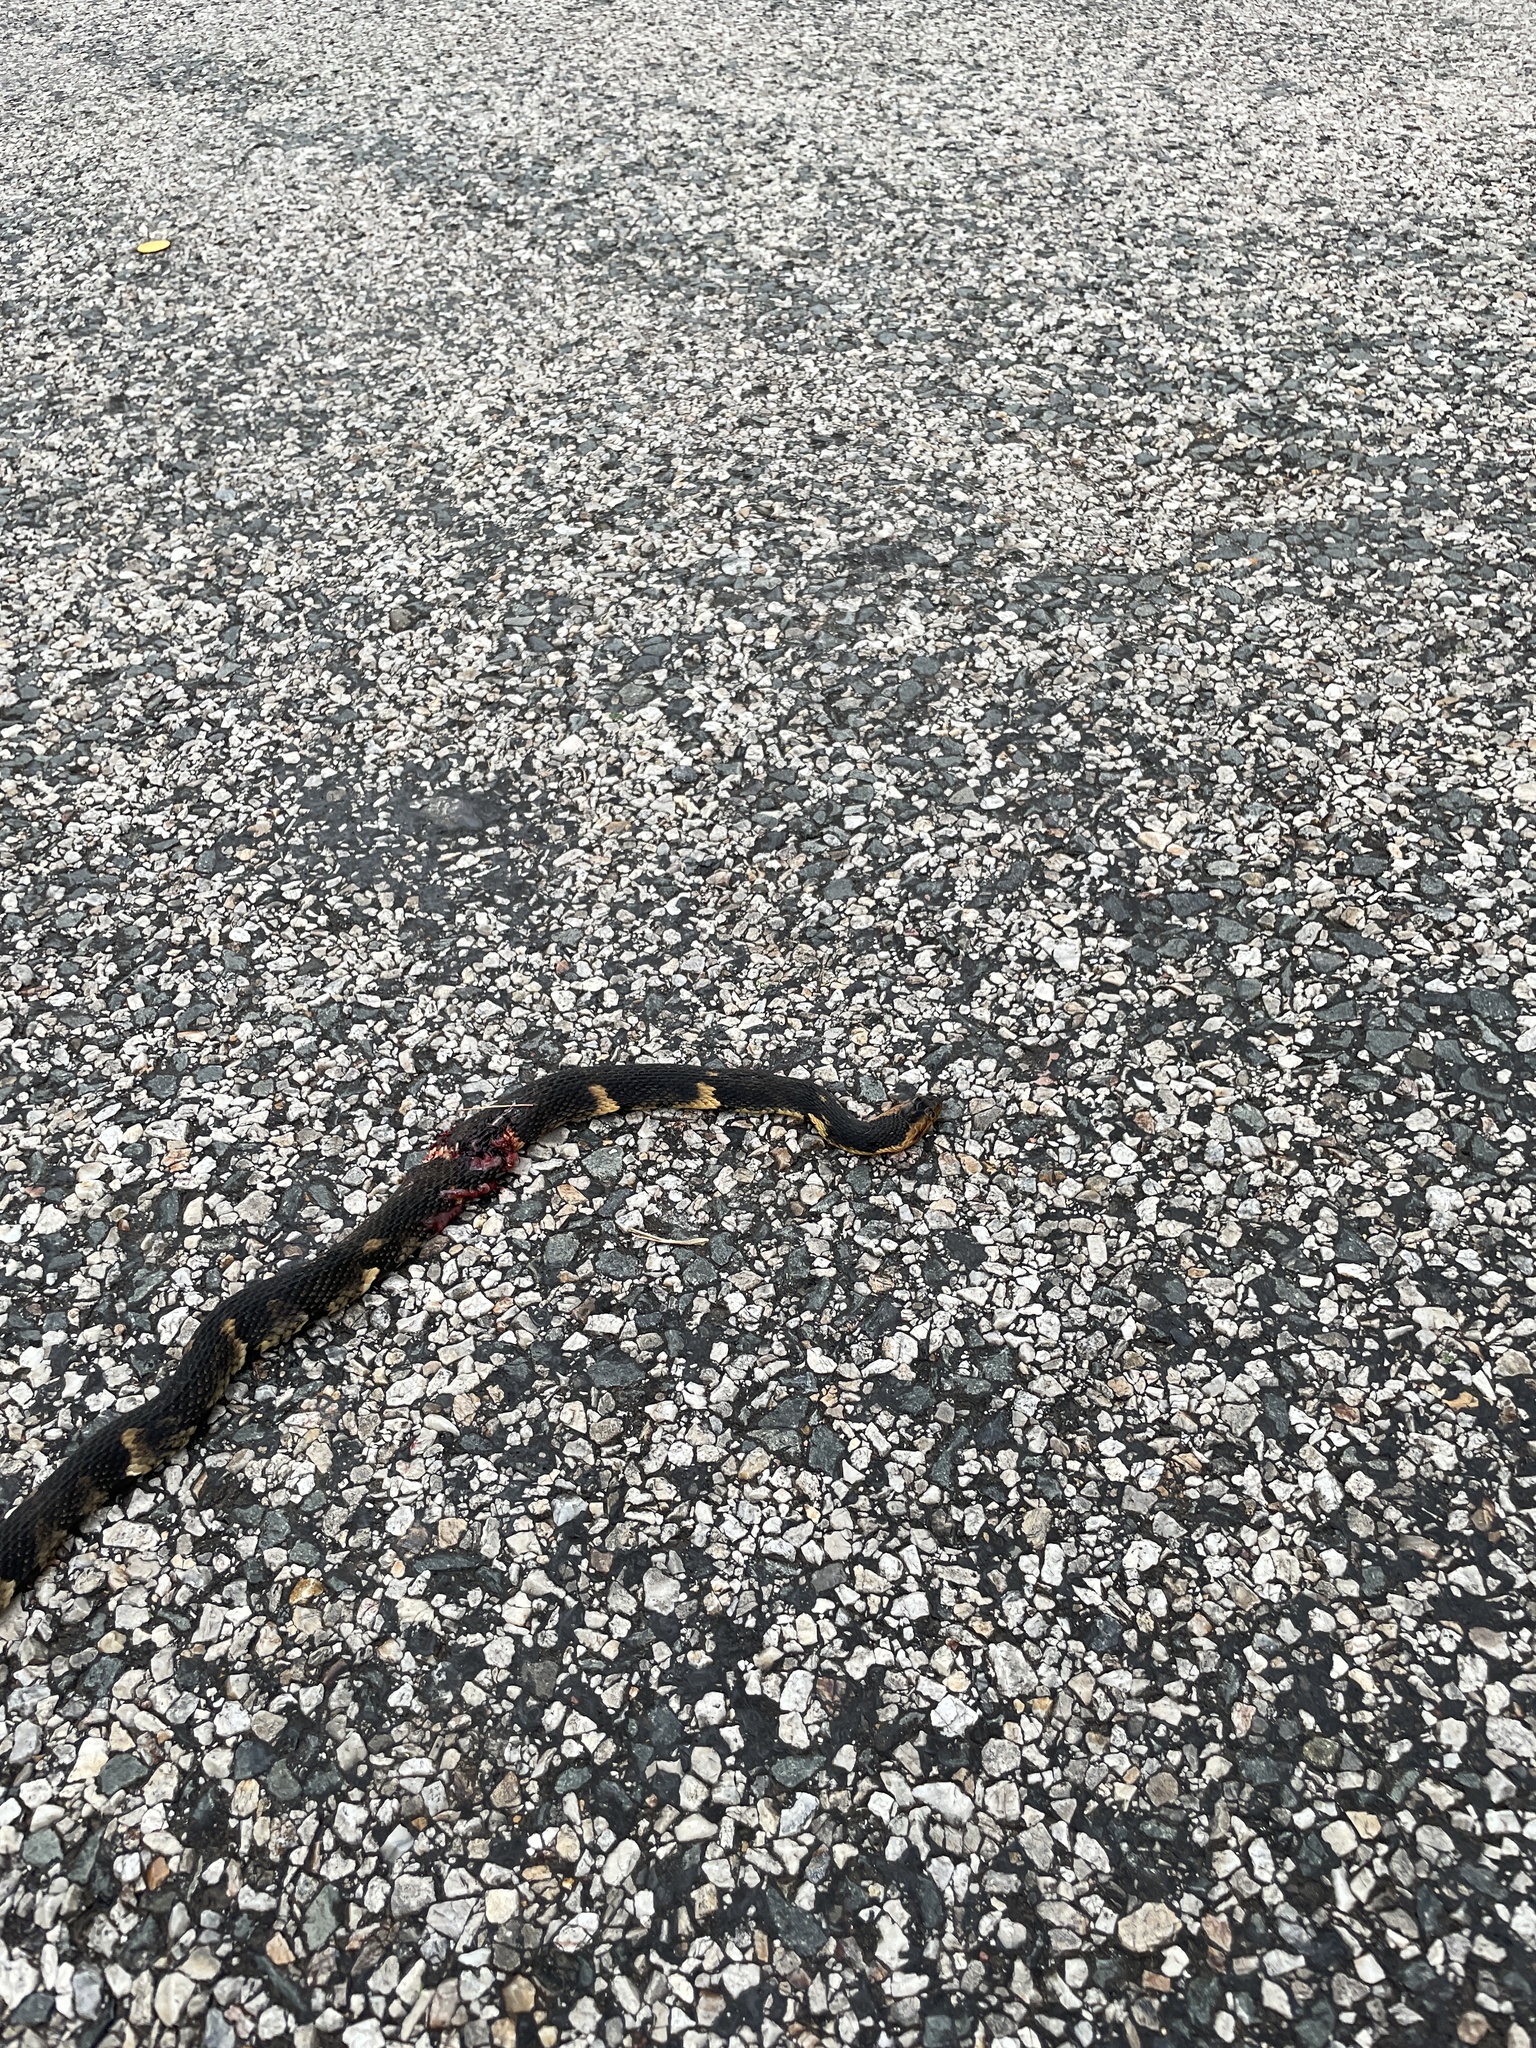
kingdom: Animalia
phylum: Chordata
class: Squamata
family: Colubridae
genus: Nerodia
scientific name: Nerodia fasciata
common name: Southern water snake
